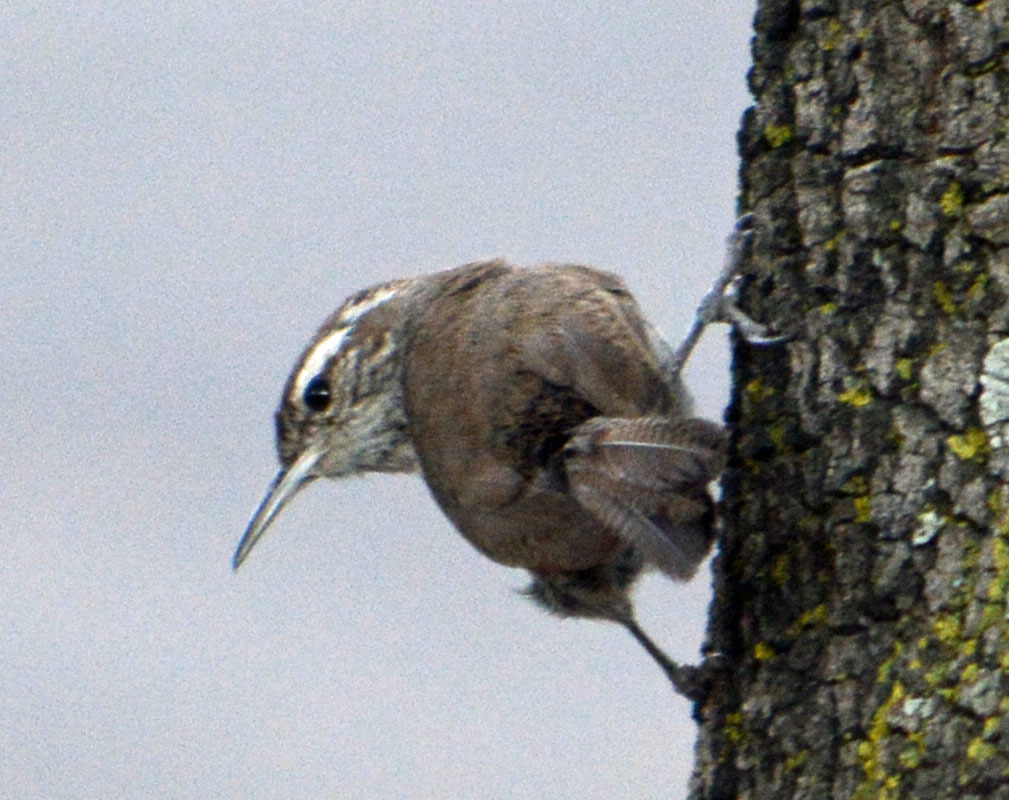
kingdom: Animalia
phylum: Chordata
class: Aves
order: Passeriformes
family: Troglodytidae
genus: Thryomanes
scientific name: Thryomanes bewickii
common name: Bewick's wren
